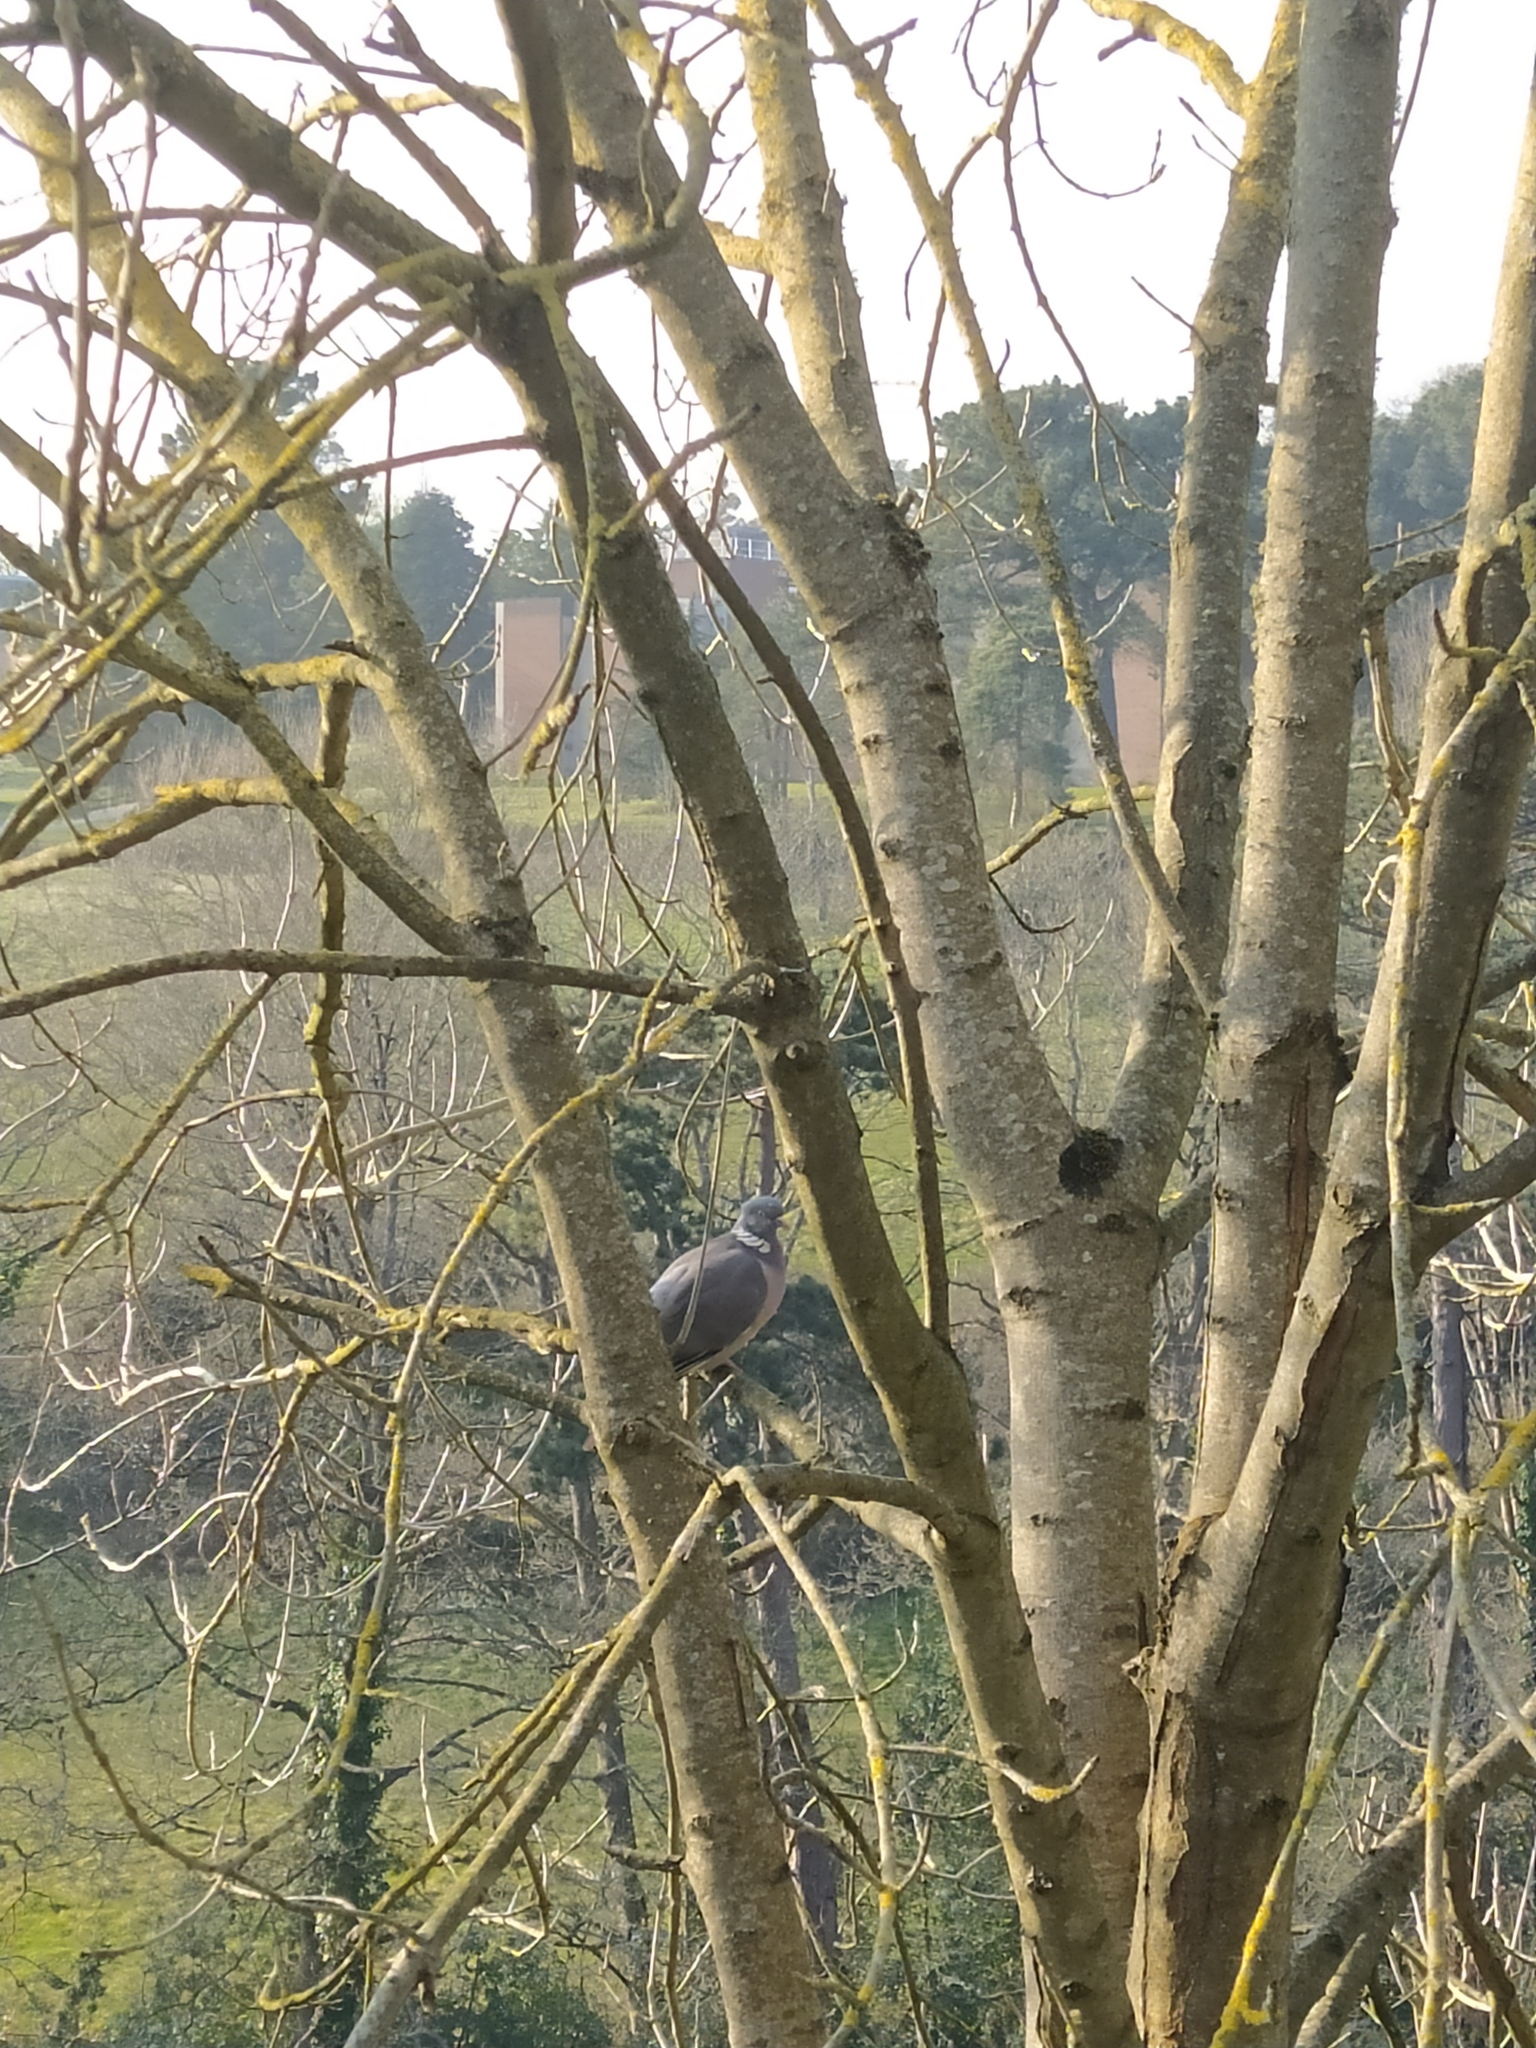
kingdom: Animalia
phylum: Chordata
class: Aves
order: Columbiformes
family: Columbidae
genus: Columba
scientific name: Columba palumbus
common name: Common wood pigeon
